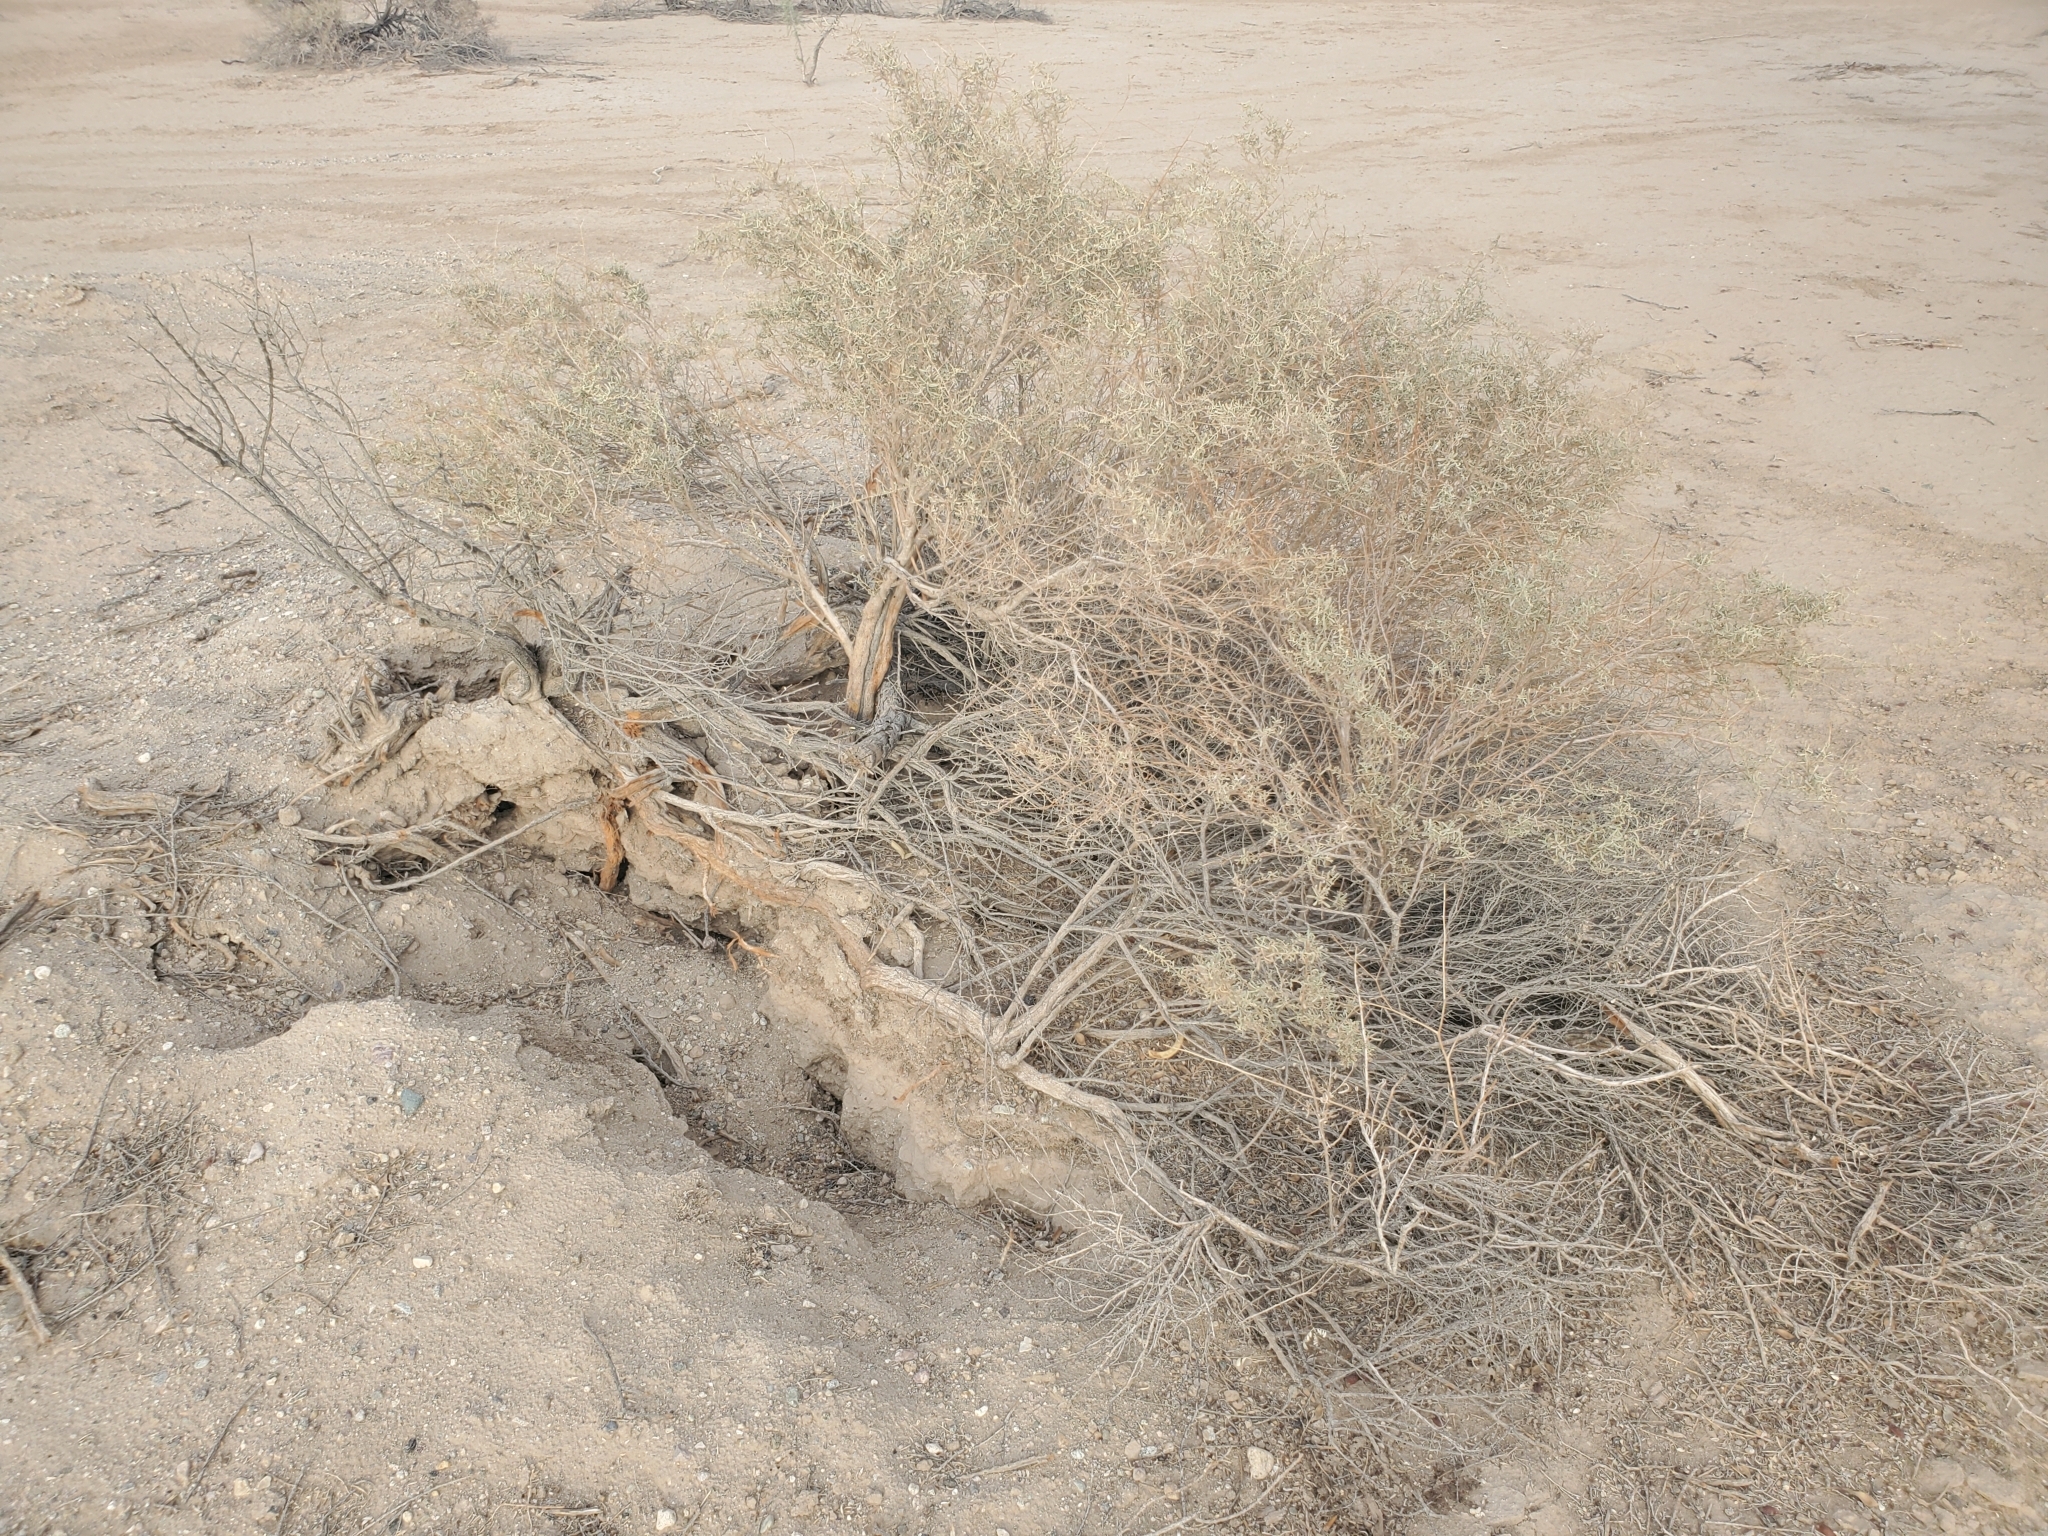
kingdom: Plantae
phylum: Tracheophyta
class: Magnoliopsida
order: Caryophyllales
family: Amaranthaceae
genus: Atriplex
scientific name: Atriplex canescens
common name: Four-wing saltbush
